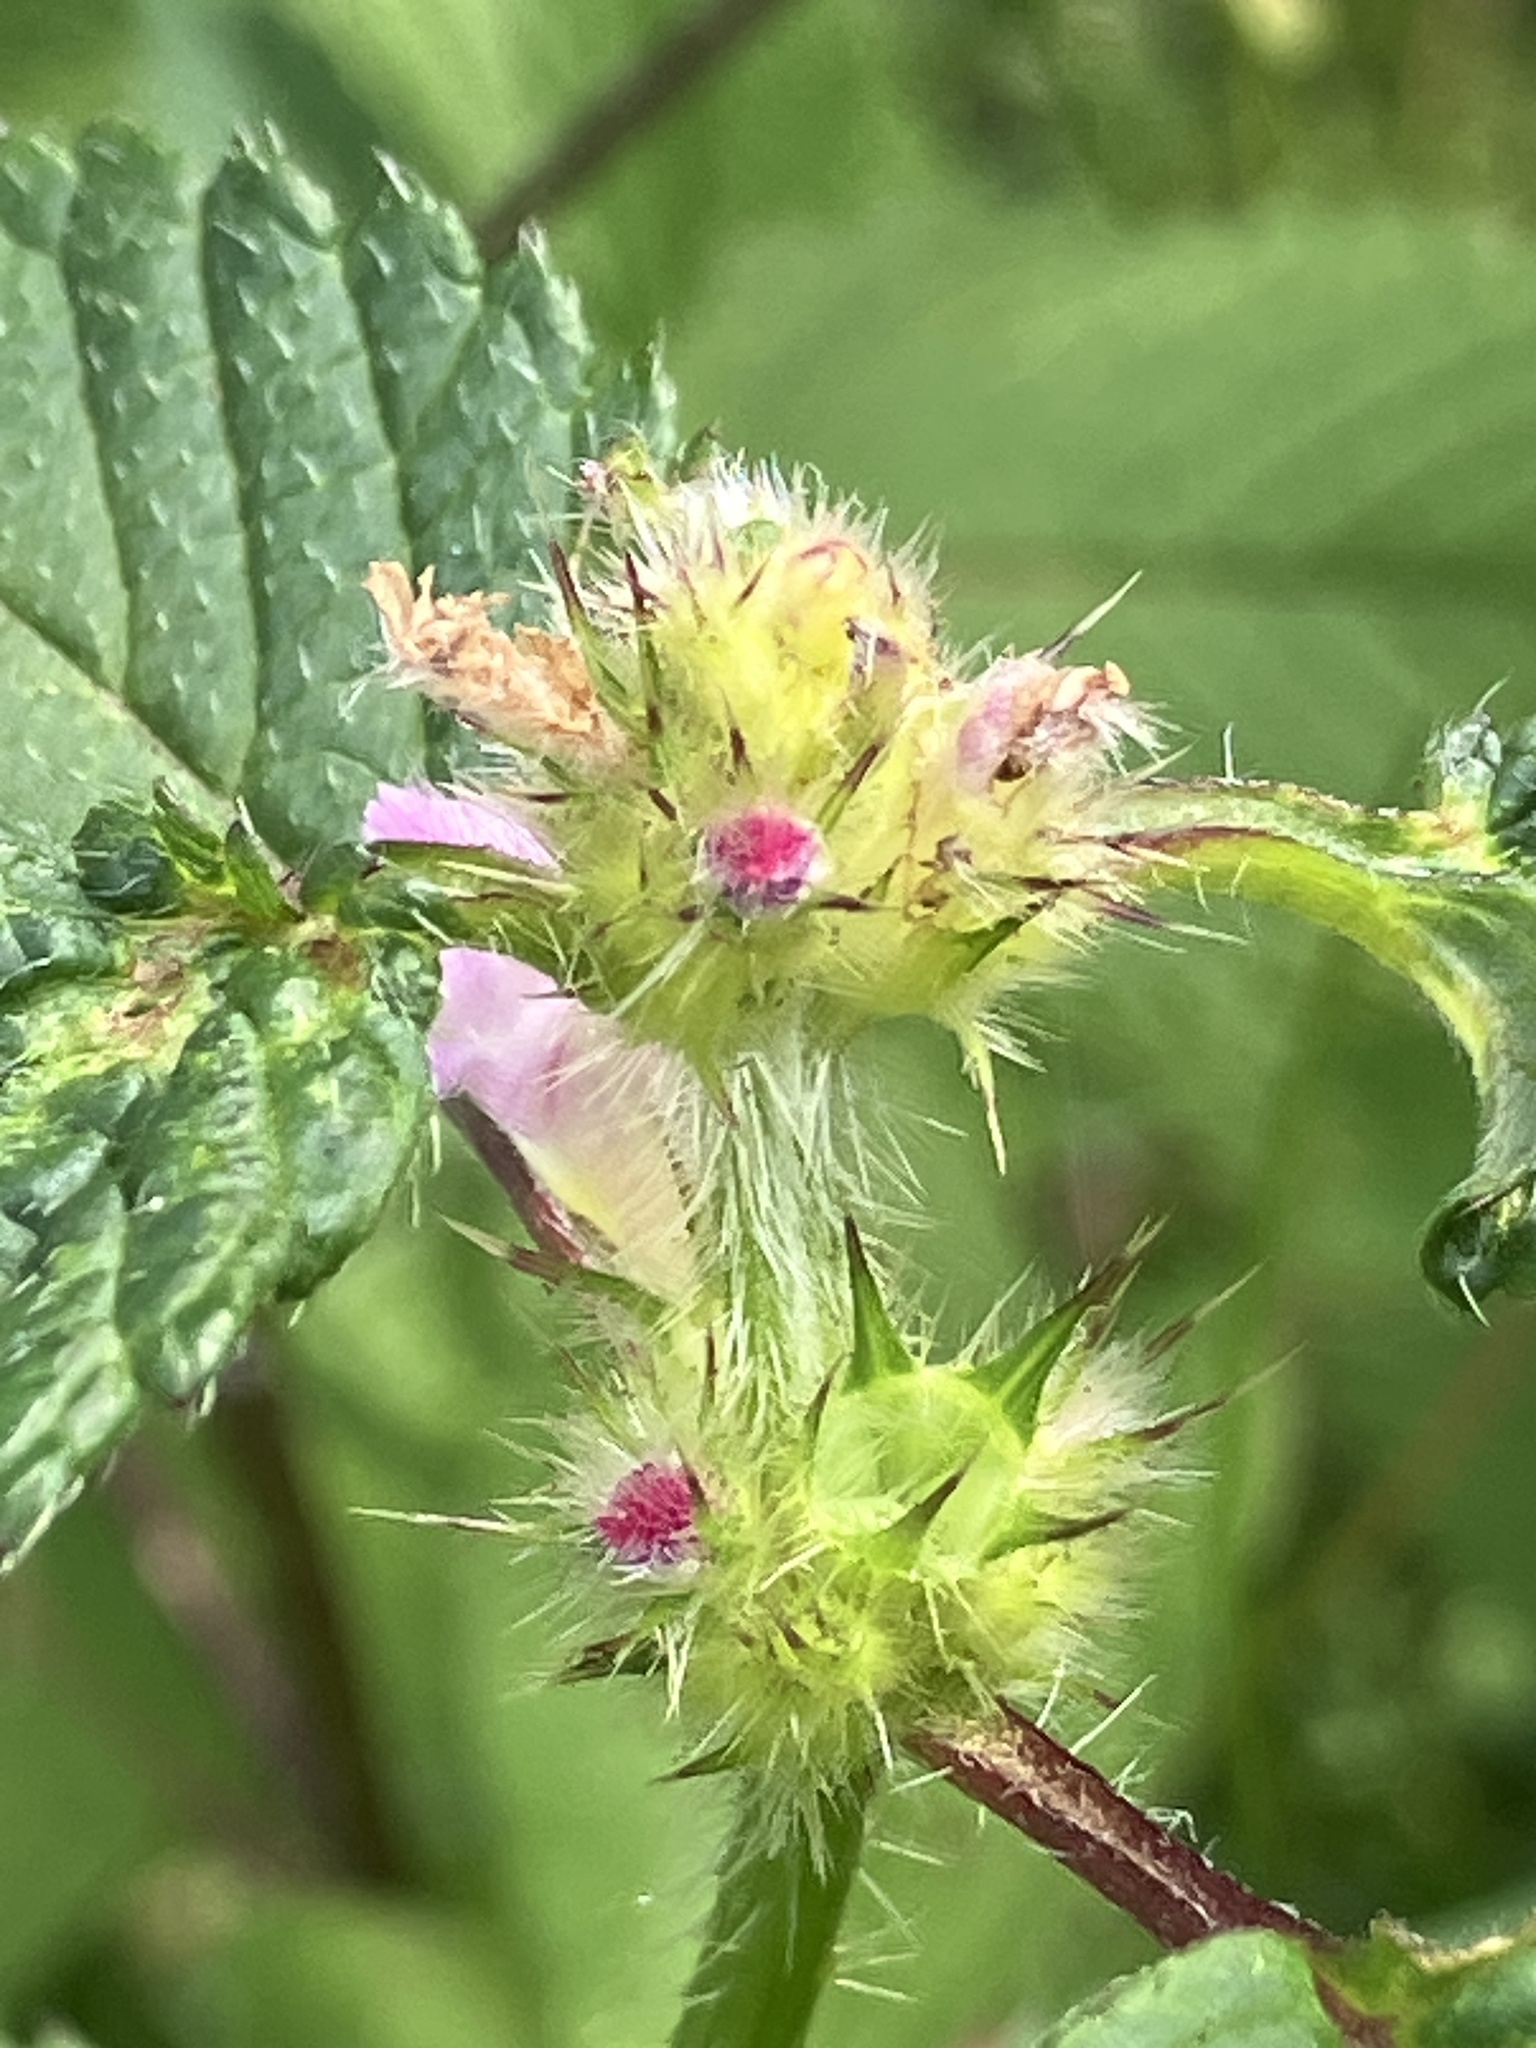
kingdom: Plantae
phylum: Tracheophyta
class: Magnoliopsida
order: Lamiales
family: Lamiaceae
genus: Galeopsis
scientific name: Galeopsis tetrahit
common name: Common hemp-nettle
